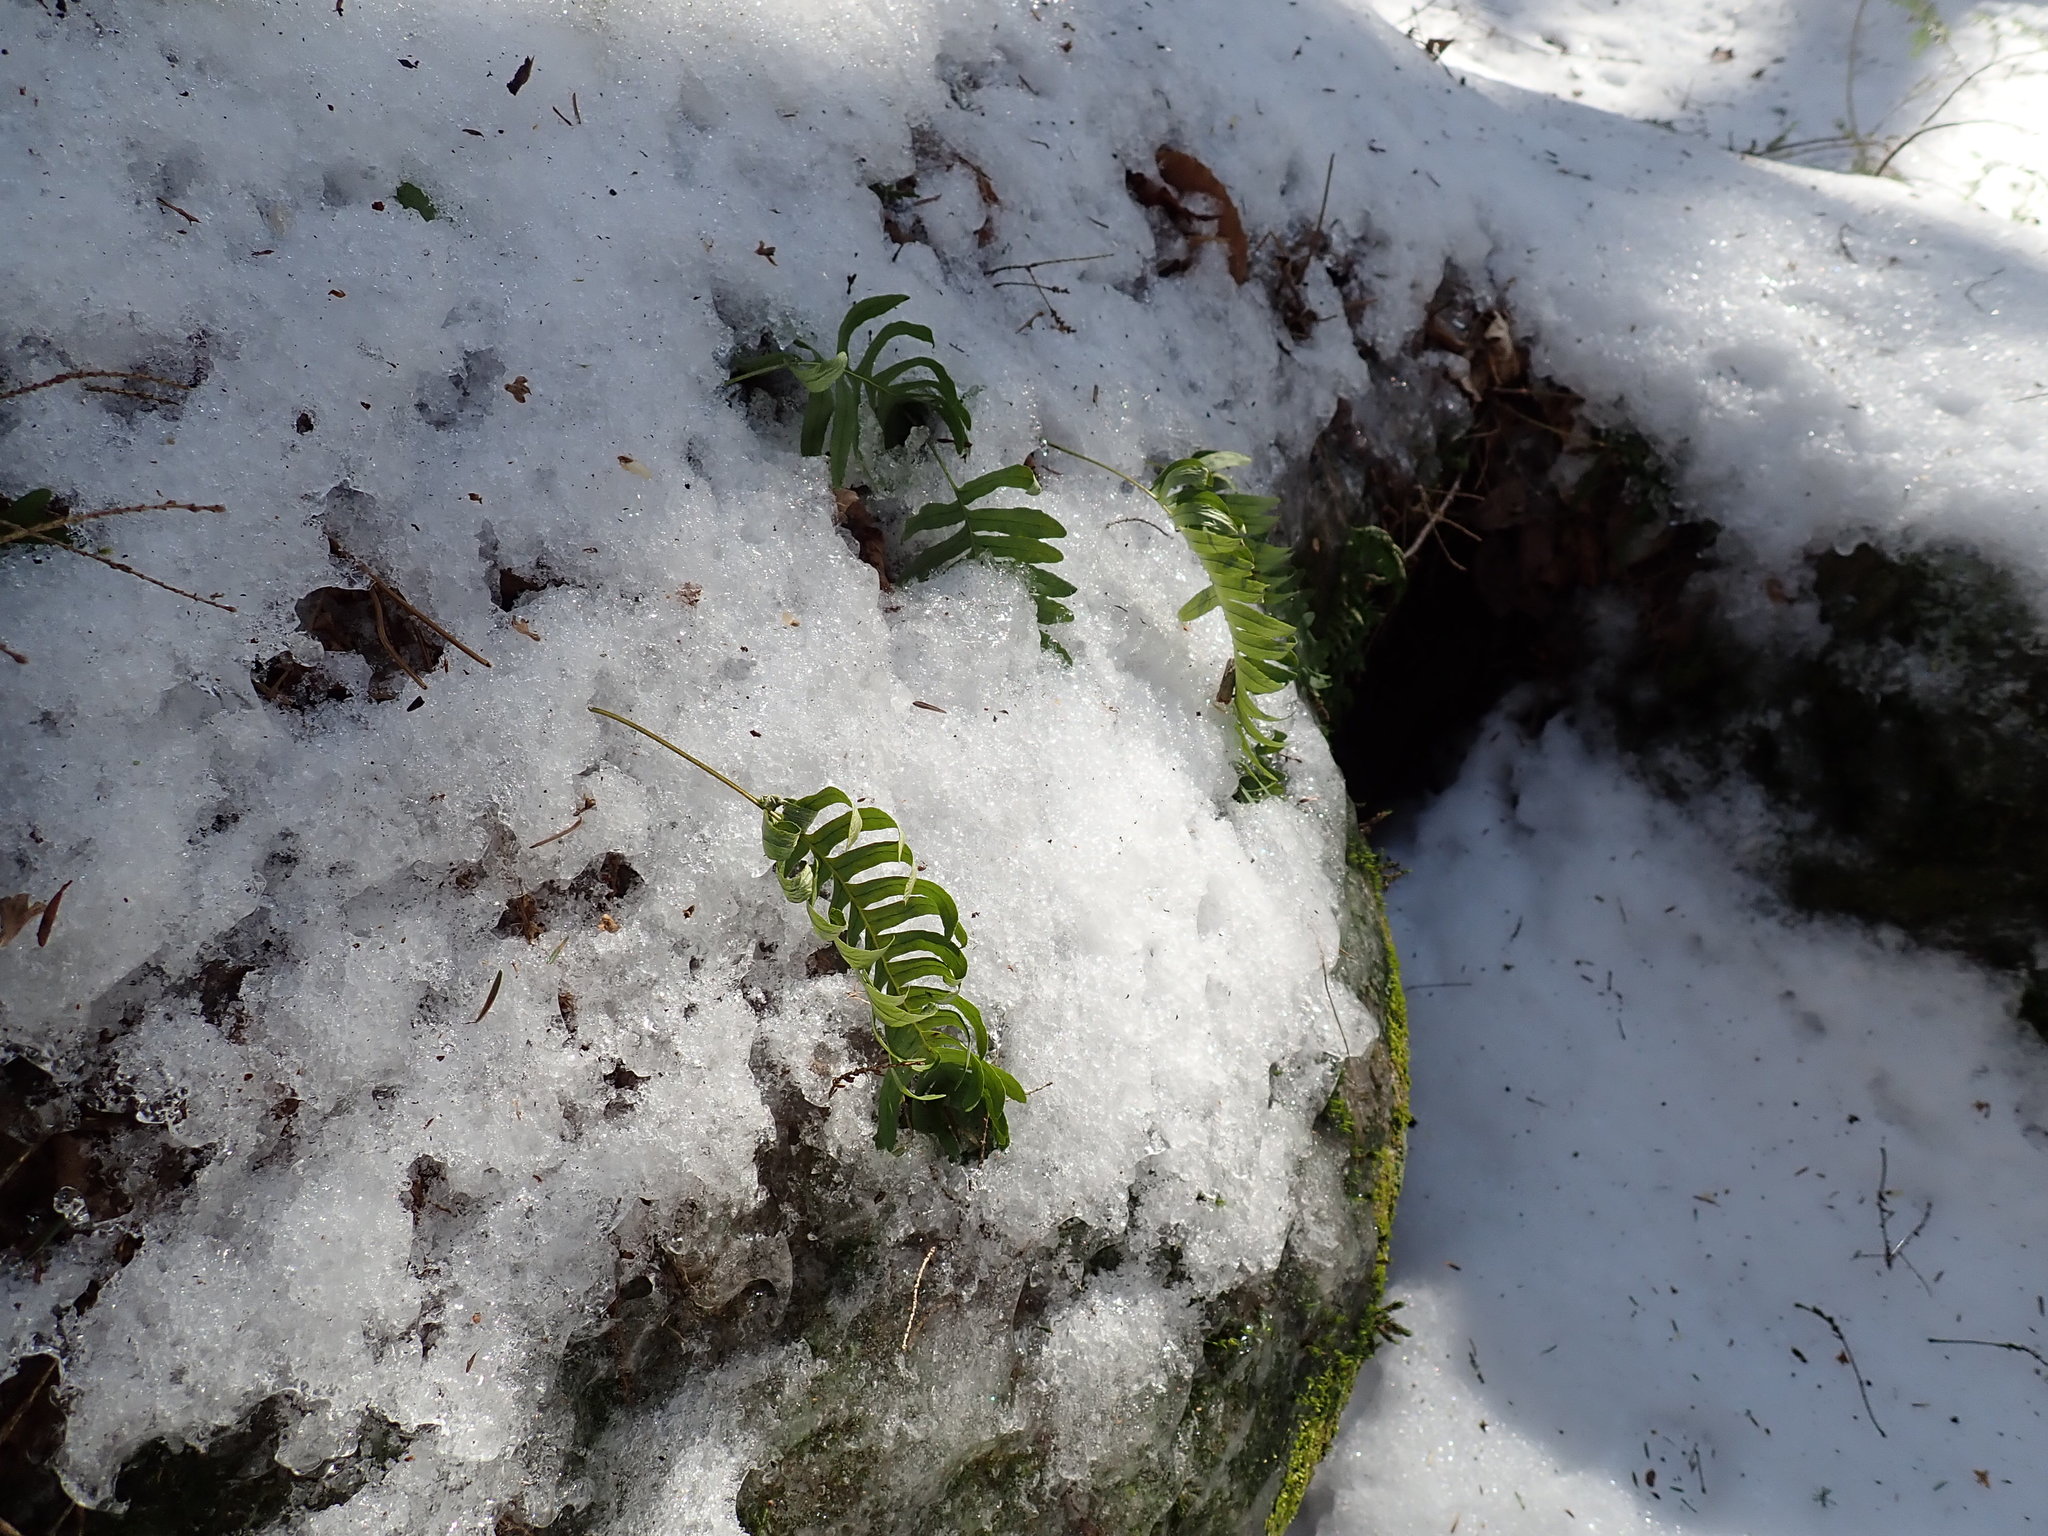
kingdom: Plantae
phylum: Tracheophyta
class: Polypodiopsida
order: Polypodiales
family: Polypodiaceae
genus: Polypodium
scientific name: Polypodium
